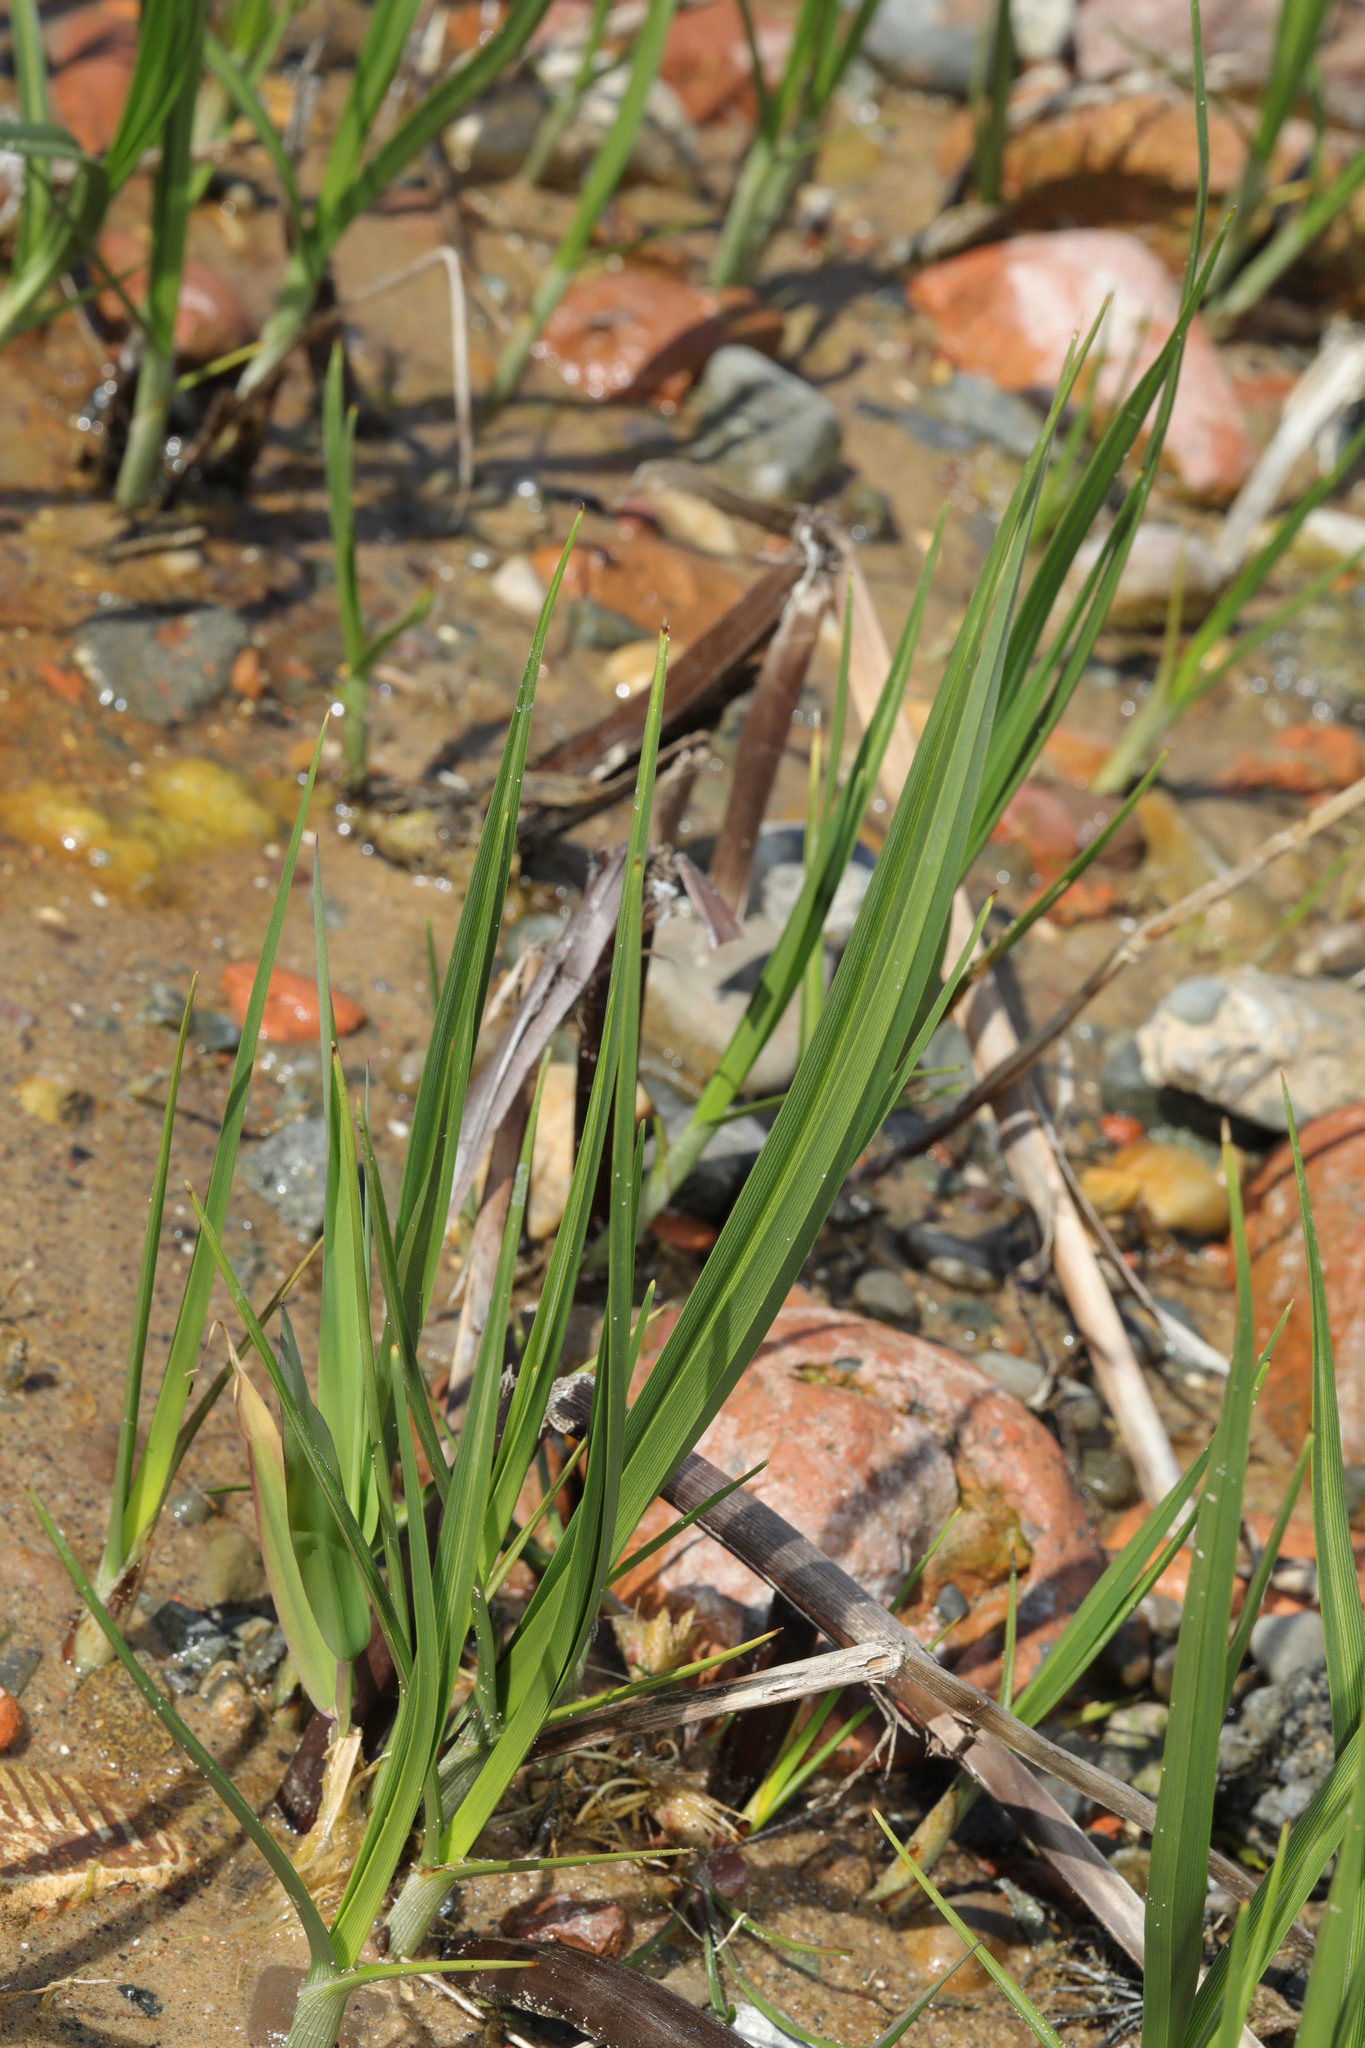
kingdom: Plantae
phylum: Tracheophyta
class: Liliopsida
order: Poales
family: Cyperaceae
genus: Bolboschoenus
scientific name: Bolboschoenus maritimus
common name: Sea club-rush
